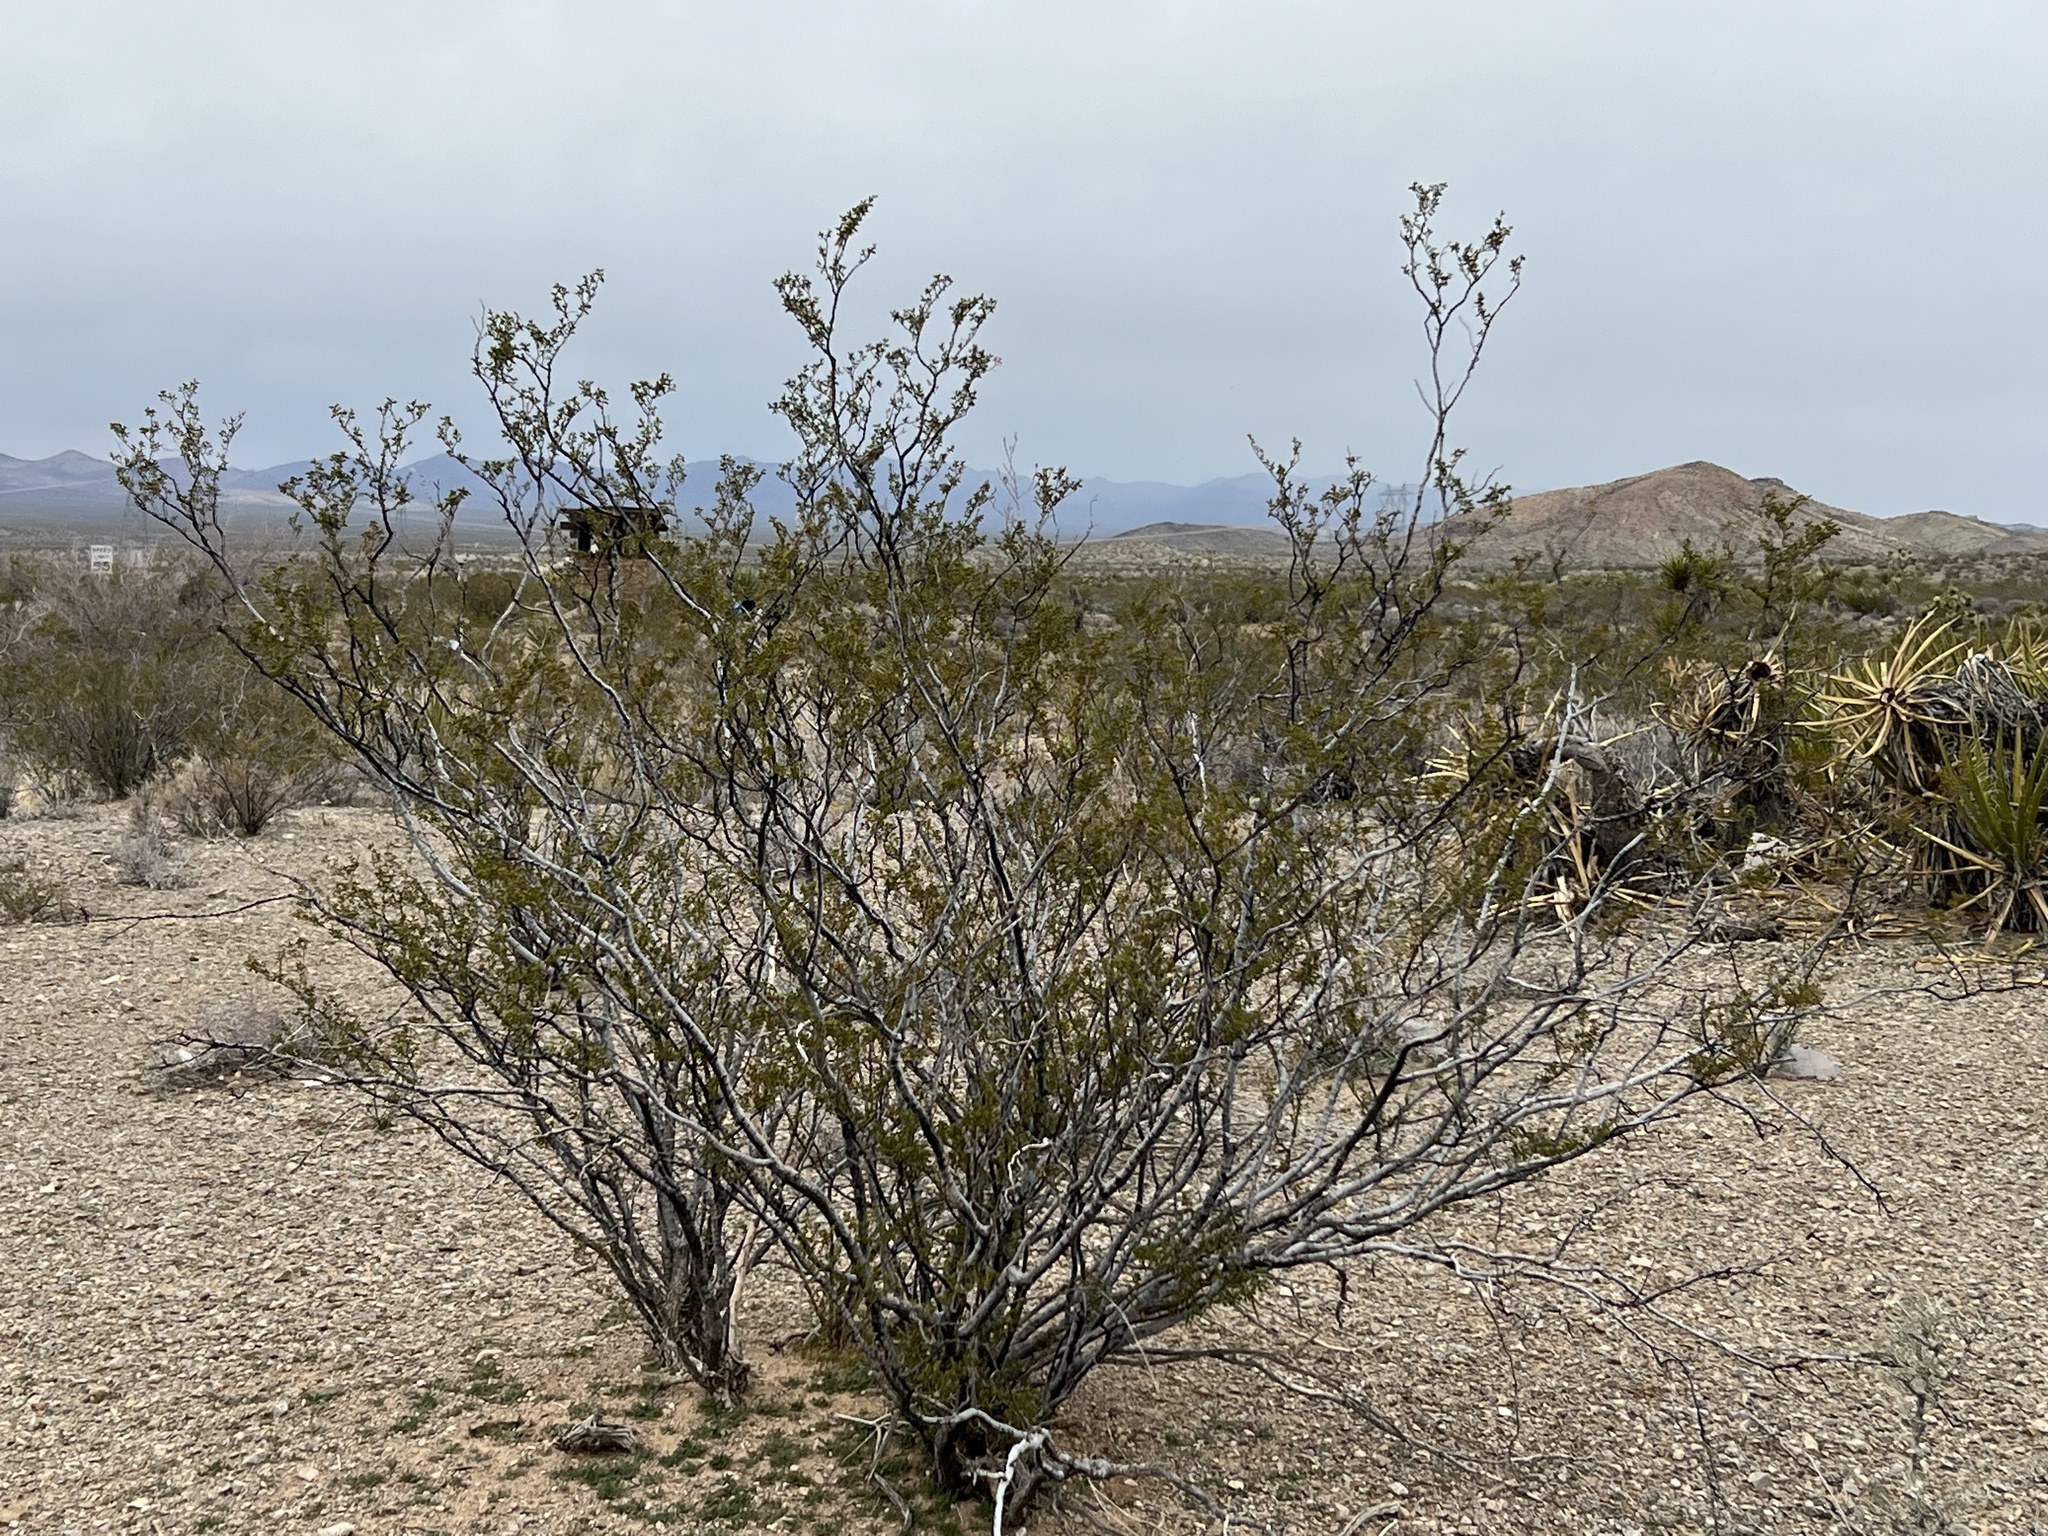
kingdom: Plantae
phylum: Tracheophyta
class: Magnoliopsida
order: Zygophyllales
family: Zygophyllaceae
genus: Larrea
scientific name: Larrea tridentata
